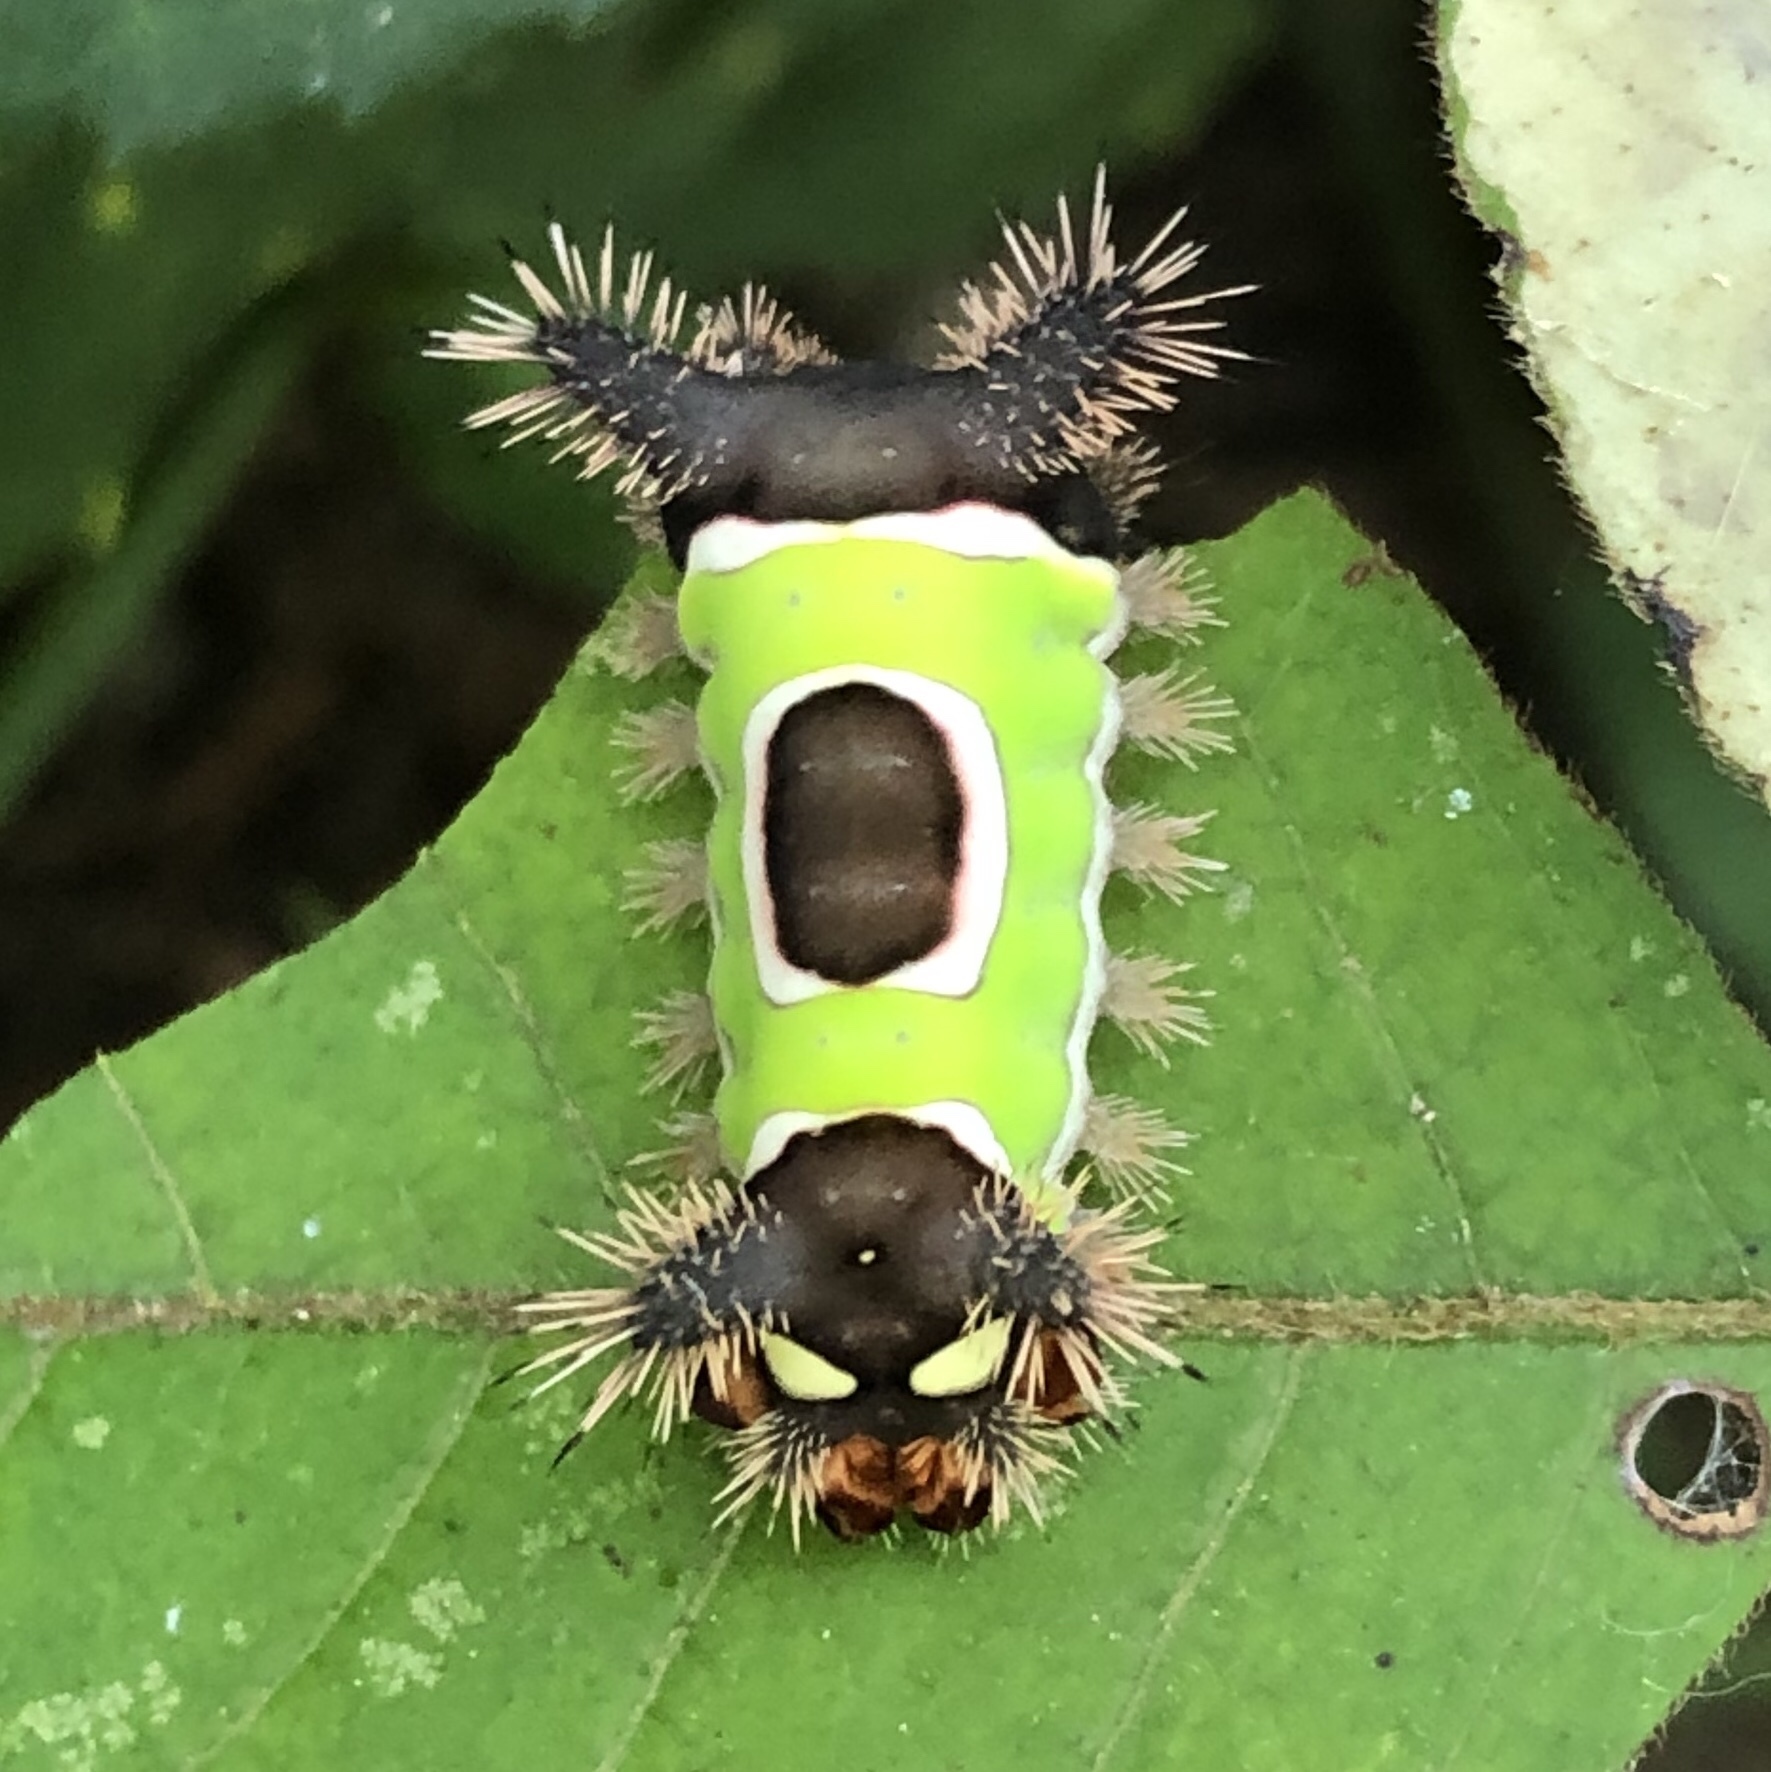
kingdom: Animalia
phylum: Arthropoda
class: Insecta
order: Lepidoptera
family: Limacodidae
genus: Acharia
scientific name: Acharia stimulea
